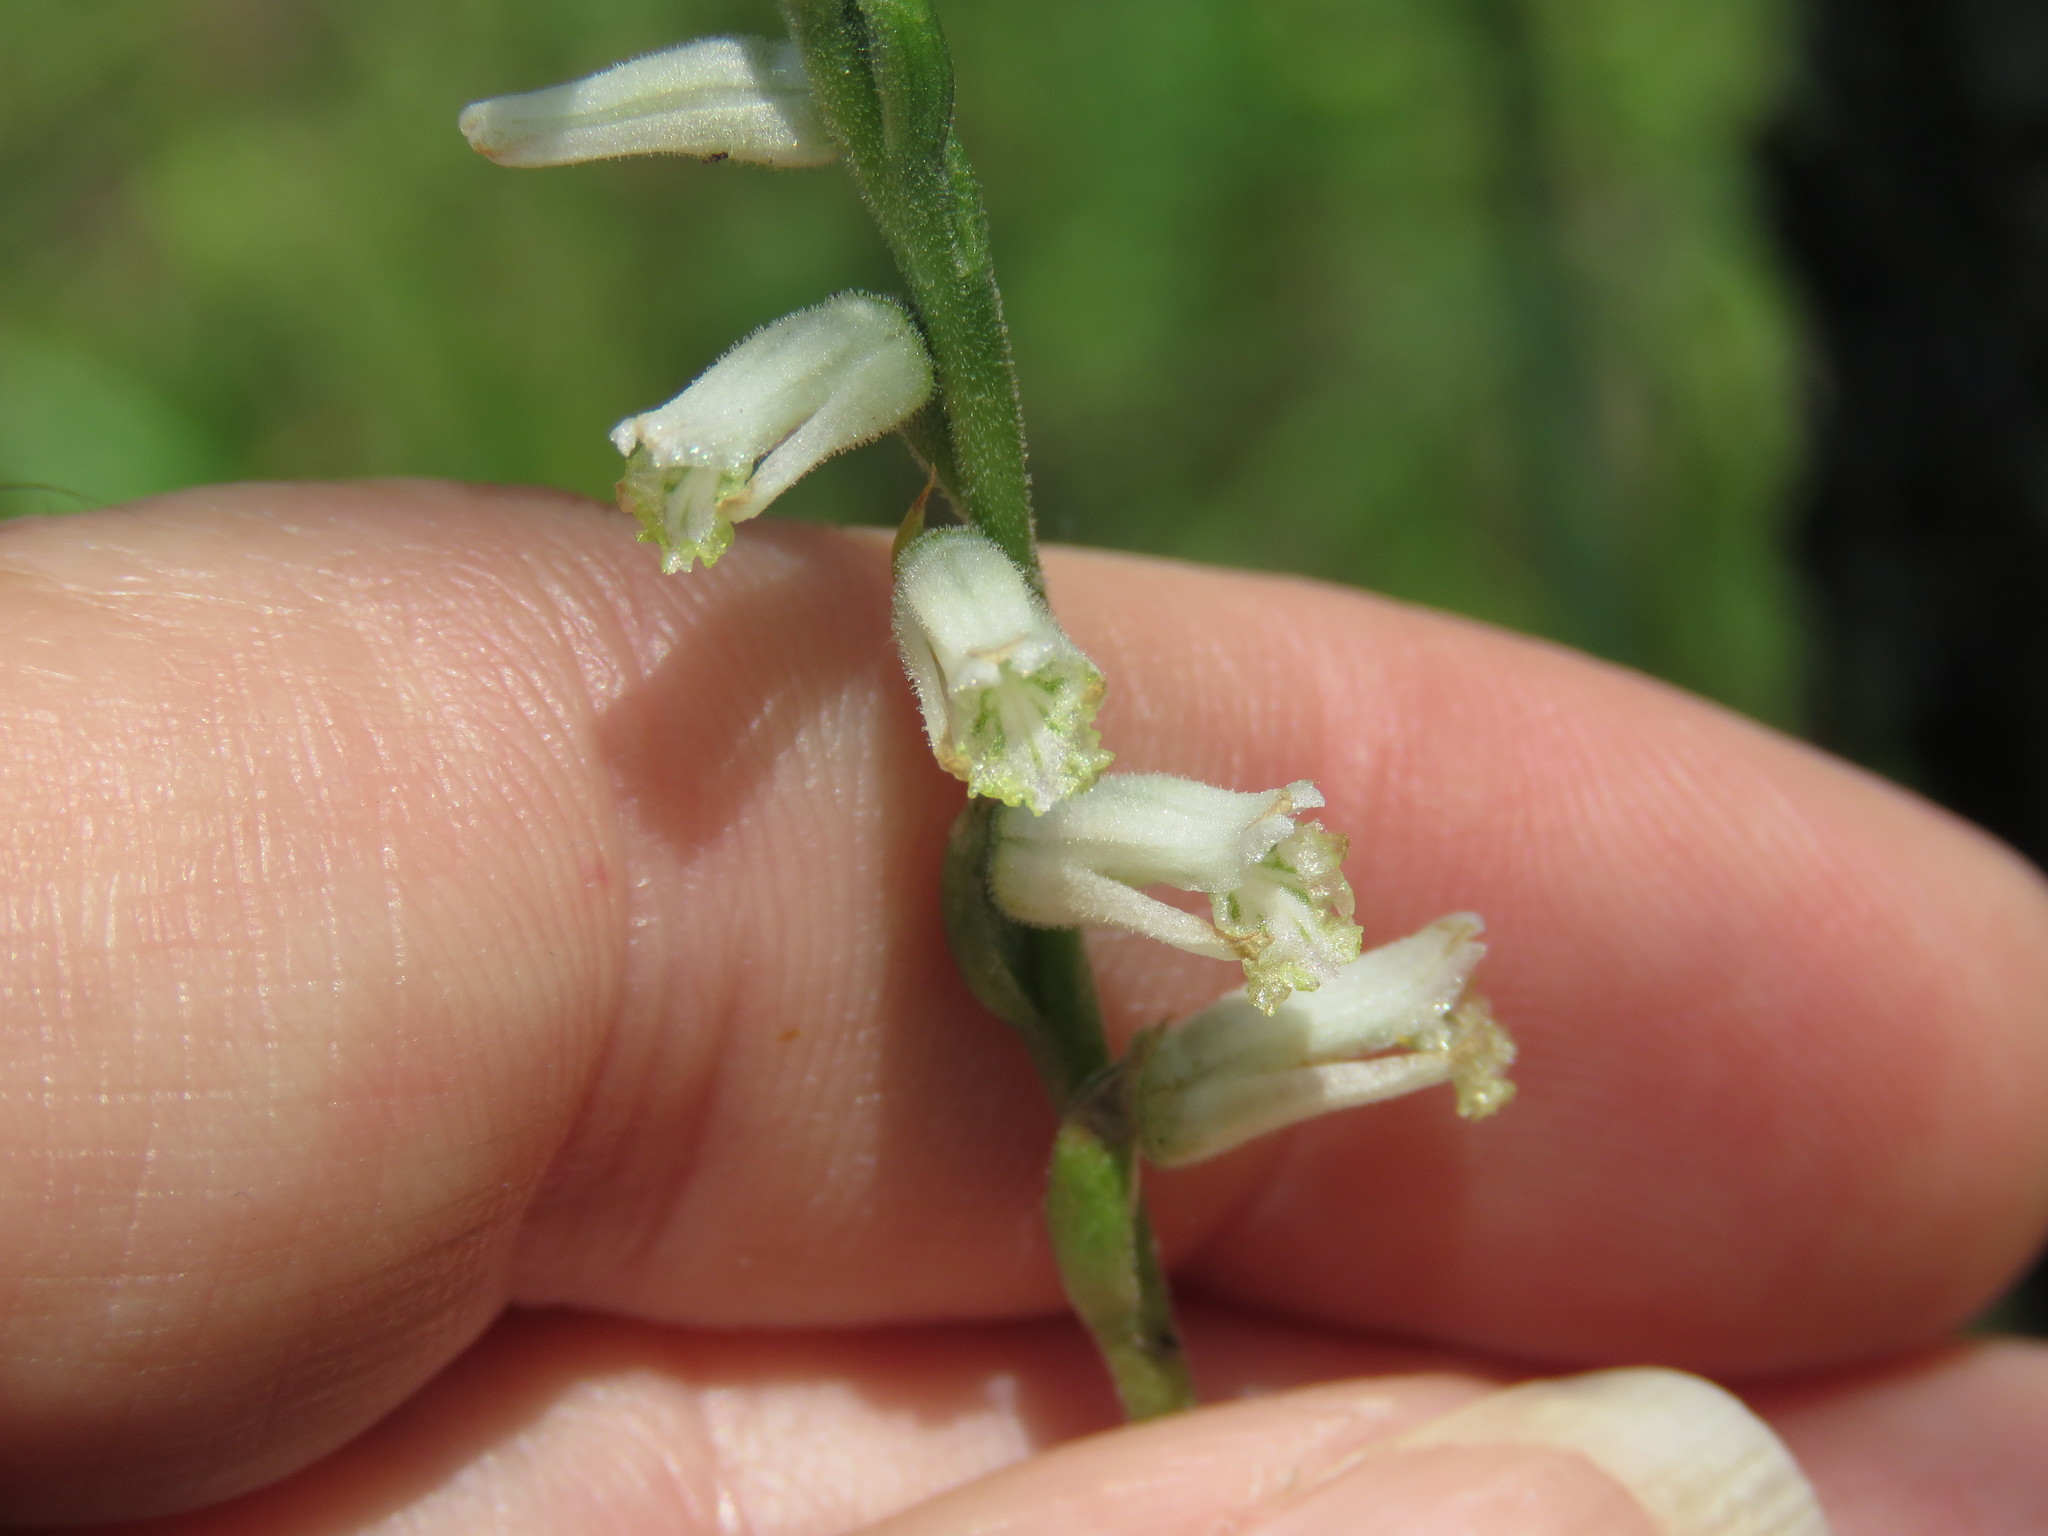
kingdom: Plantae
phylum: Tracheophyta
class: Liliopsida
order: Asparagales
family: Orchidaceae
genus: Spiranthes
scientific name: Spiranthes praecox
